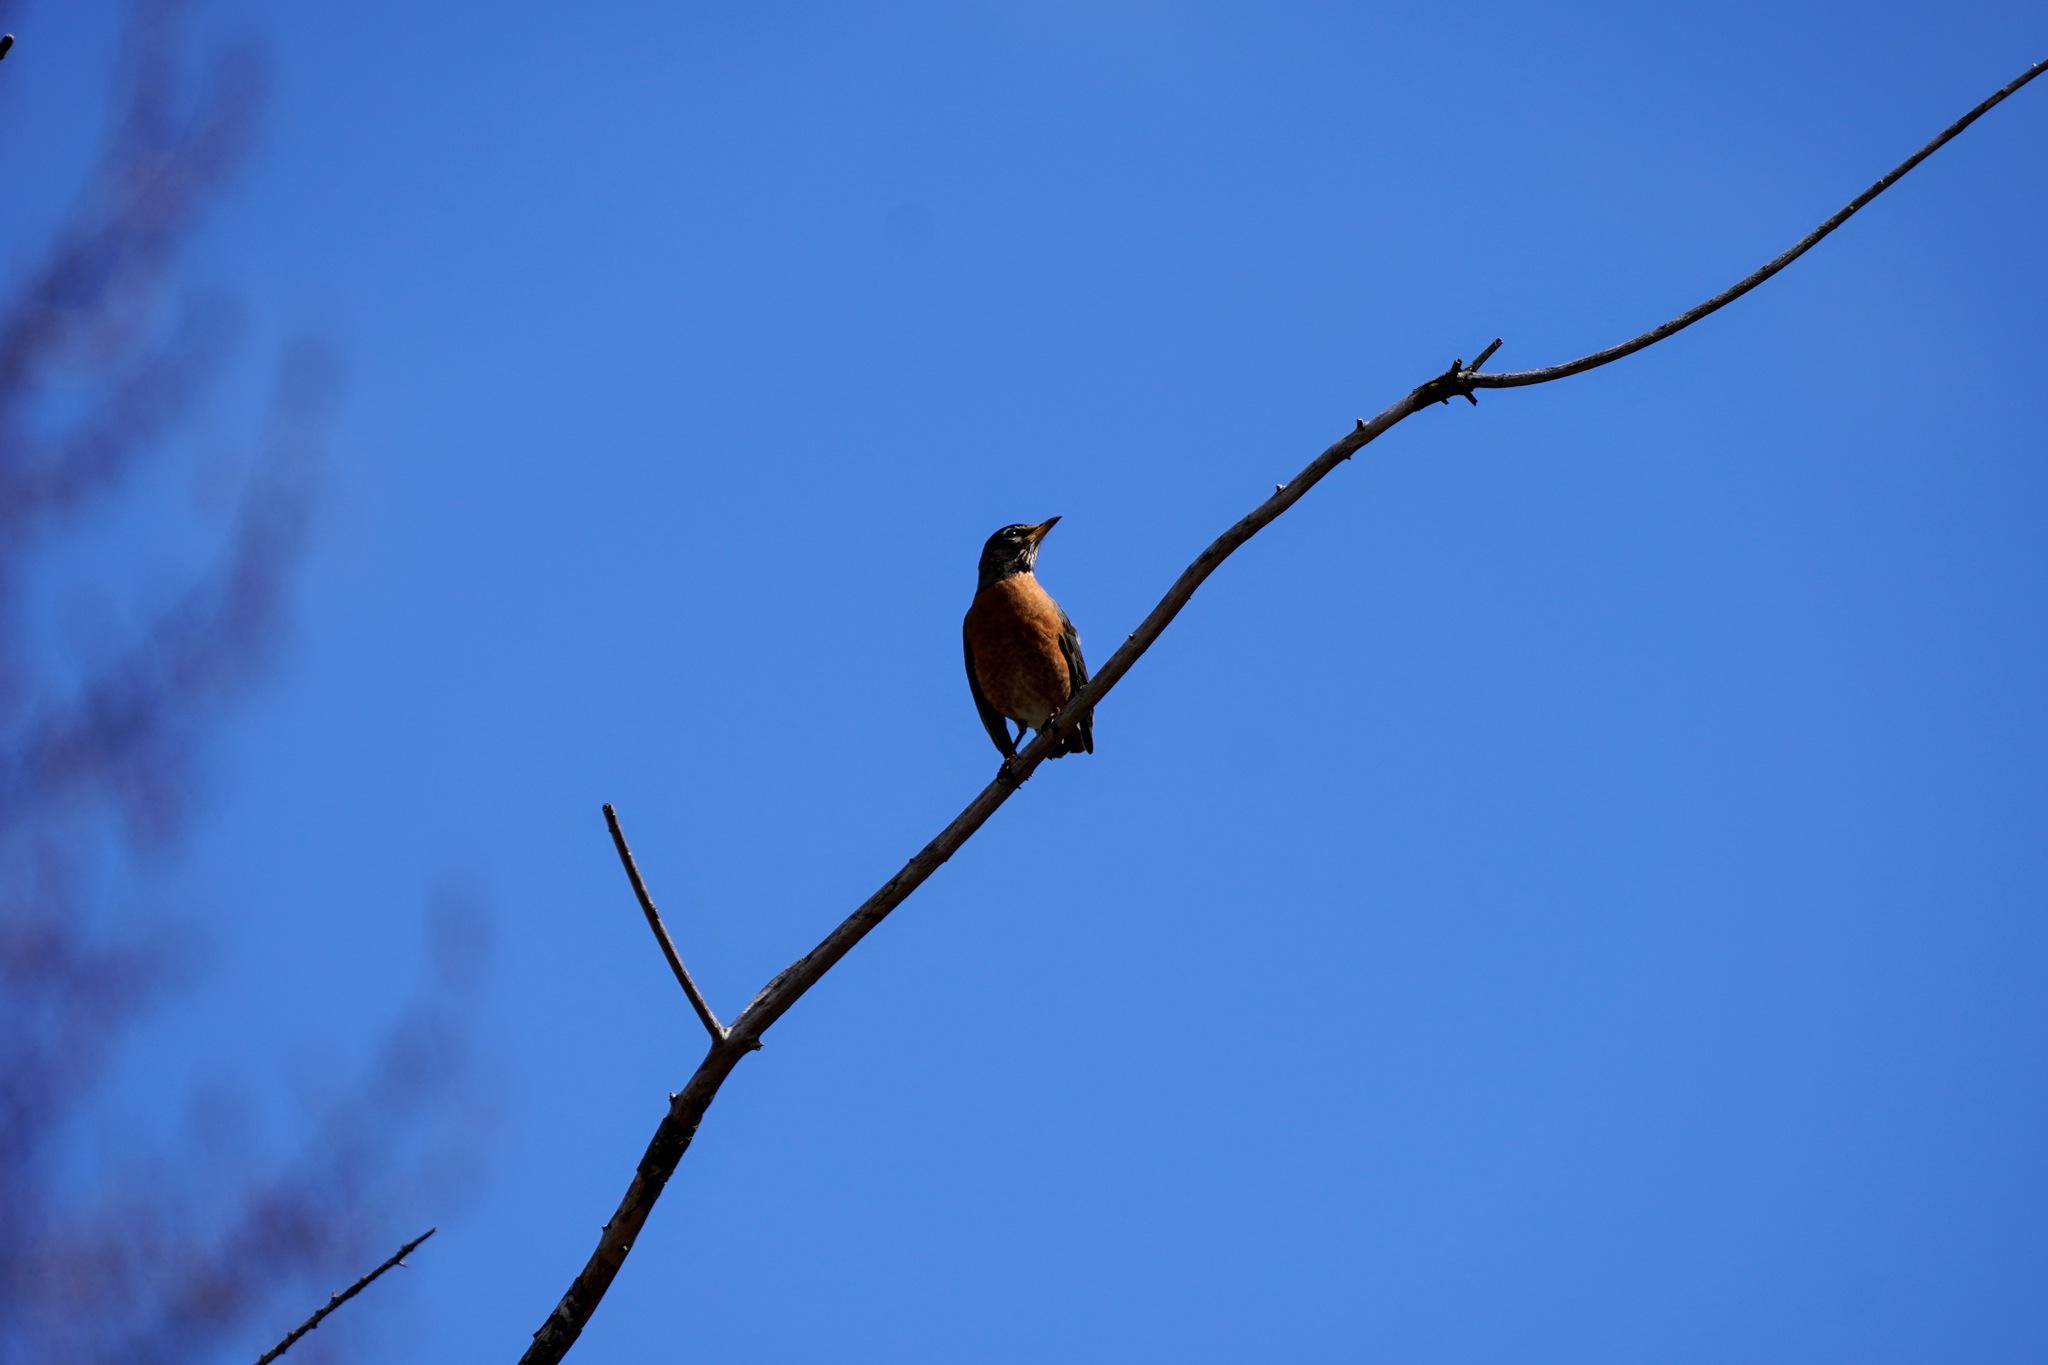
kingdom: Animalia
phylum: Chordata
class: Aves
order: Passeriformes
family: Turdidae
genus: Turdus
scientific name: Turdus migratorius
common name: American robin
